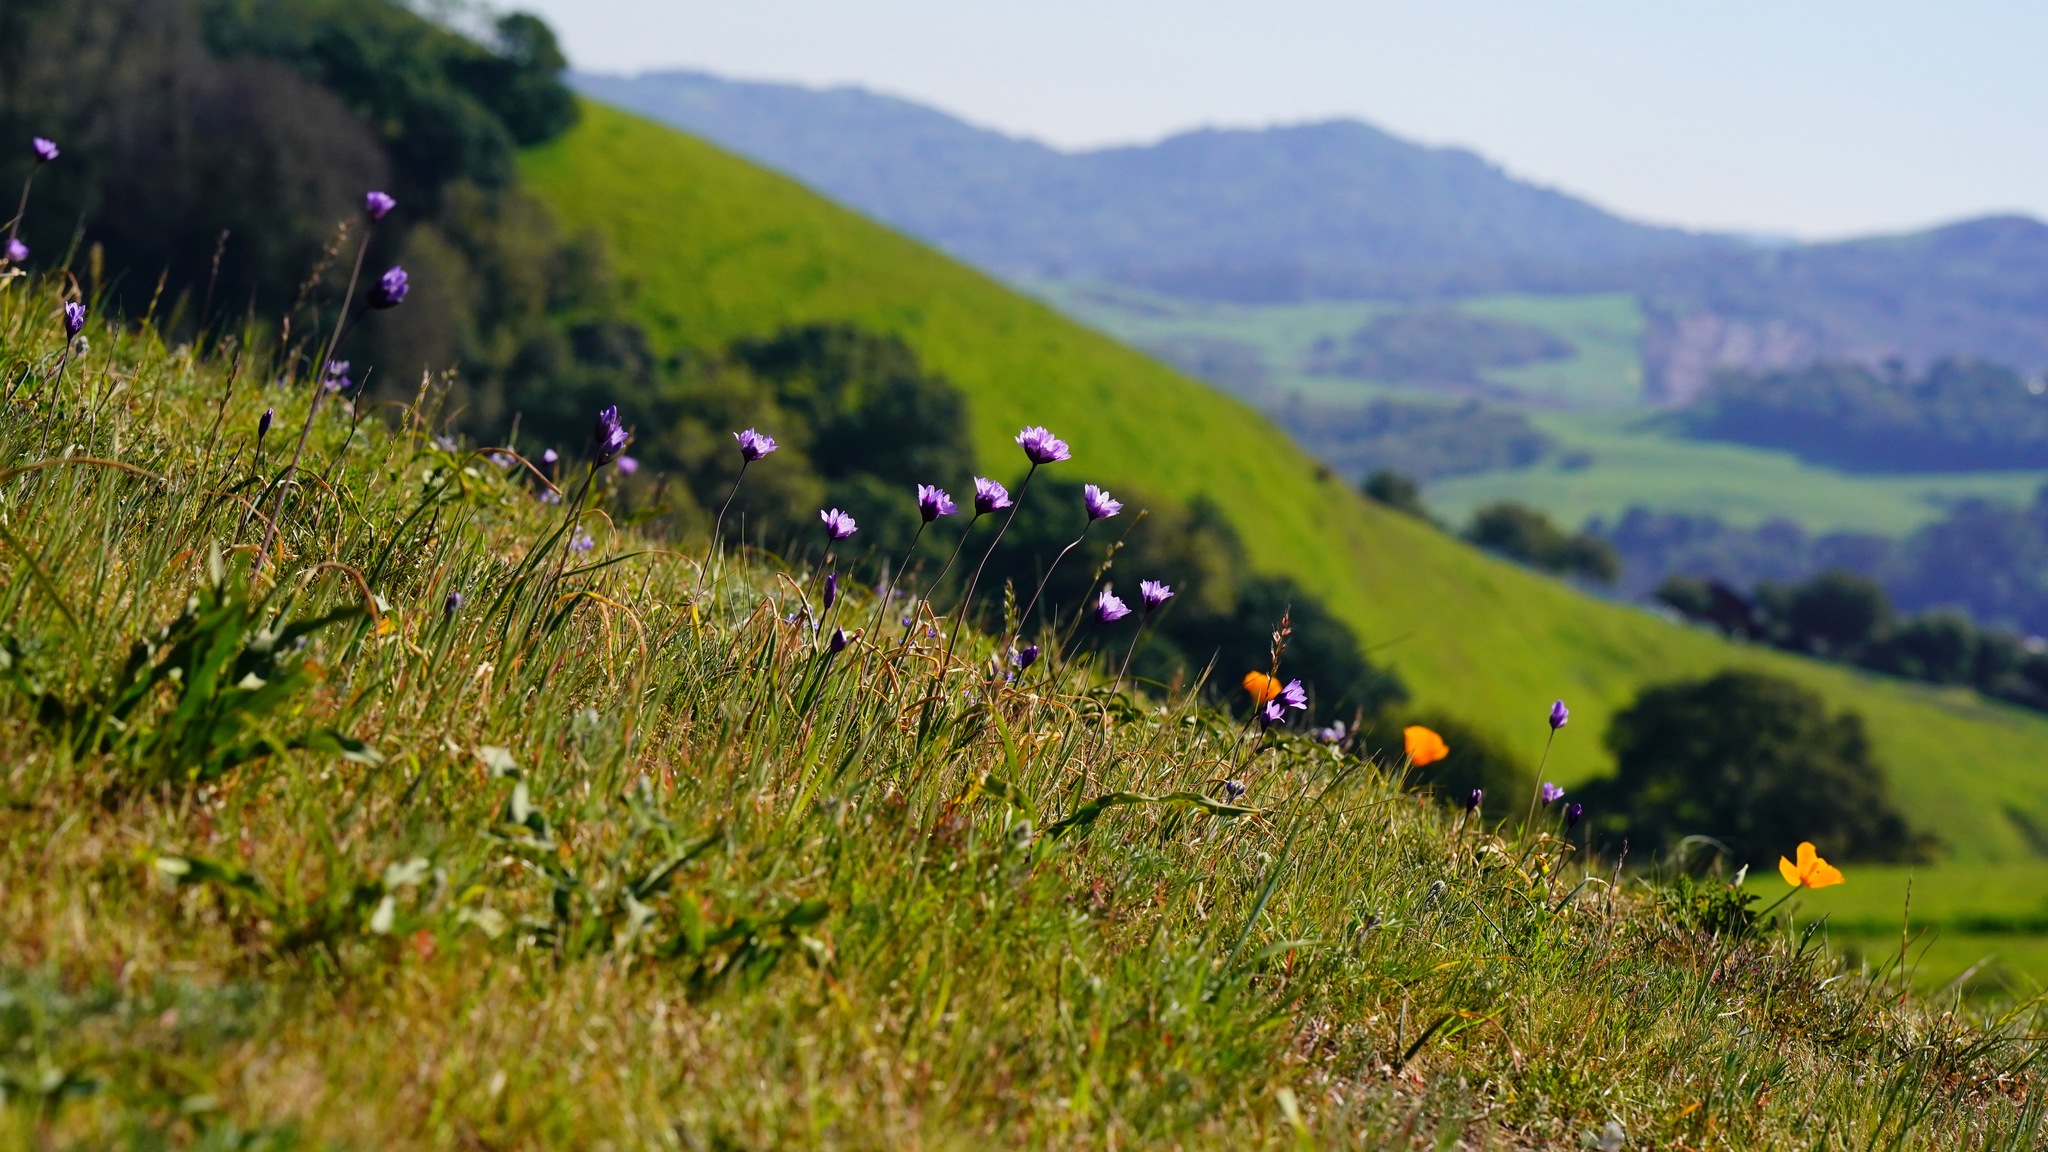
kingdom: Plantae
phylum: Tracheophyta
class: Liliopsida
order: Asparagales
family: Asparagaceae
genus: Dipterostemon
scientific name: Dipterostemon capitatus
